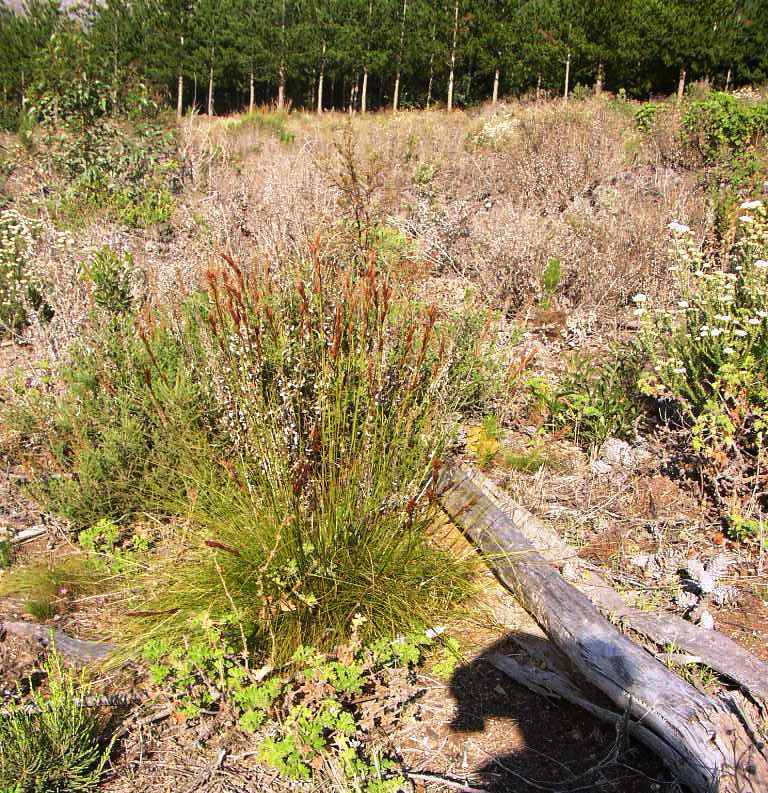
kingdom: Plantae
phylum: Tracheophyta
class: Liliopsida
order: Poales
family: Cyperaceae
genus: Tetraria
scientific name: Tetraria ustulata
